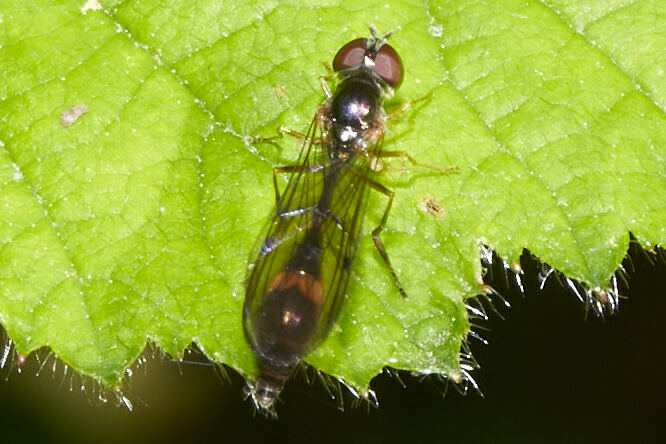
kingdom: Animalia
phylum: Arthropoda
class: Insecta
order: Diptera
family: Syrphidae
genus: Baccha
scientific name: Baccha elongata
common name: Common dainty
